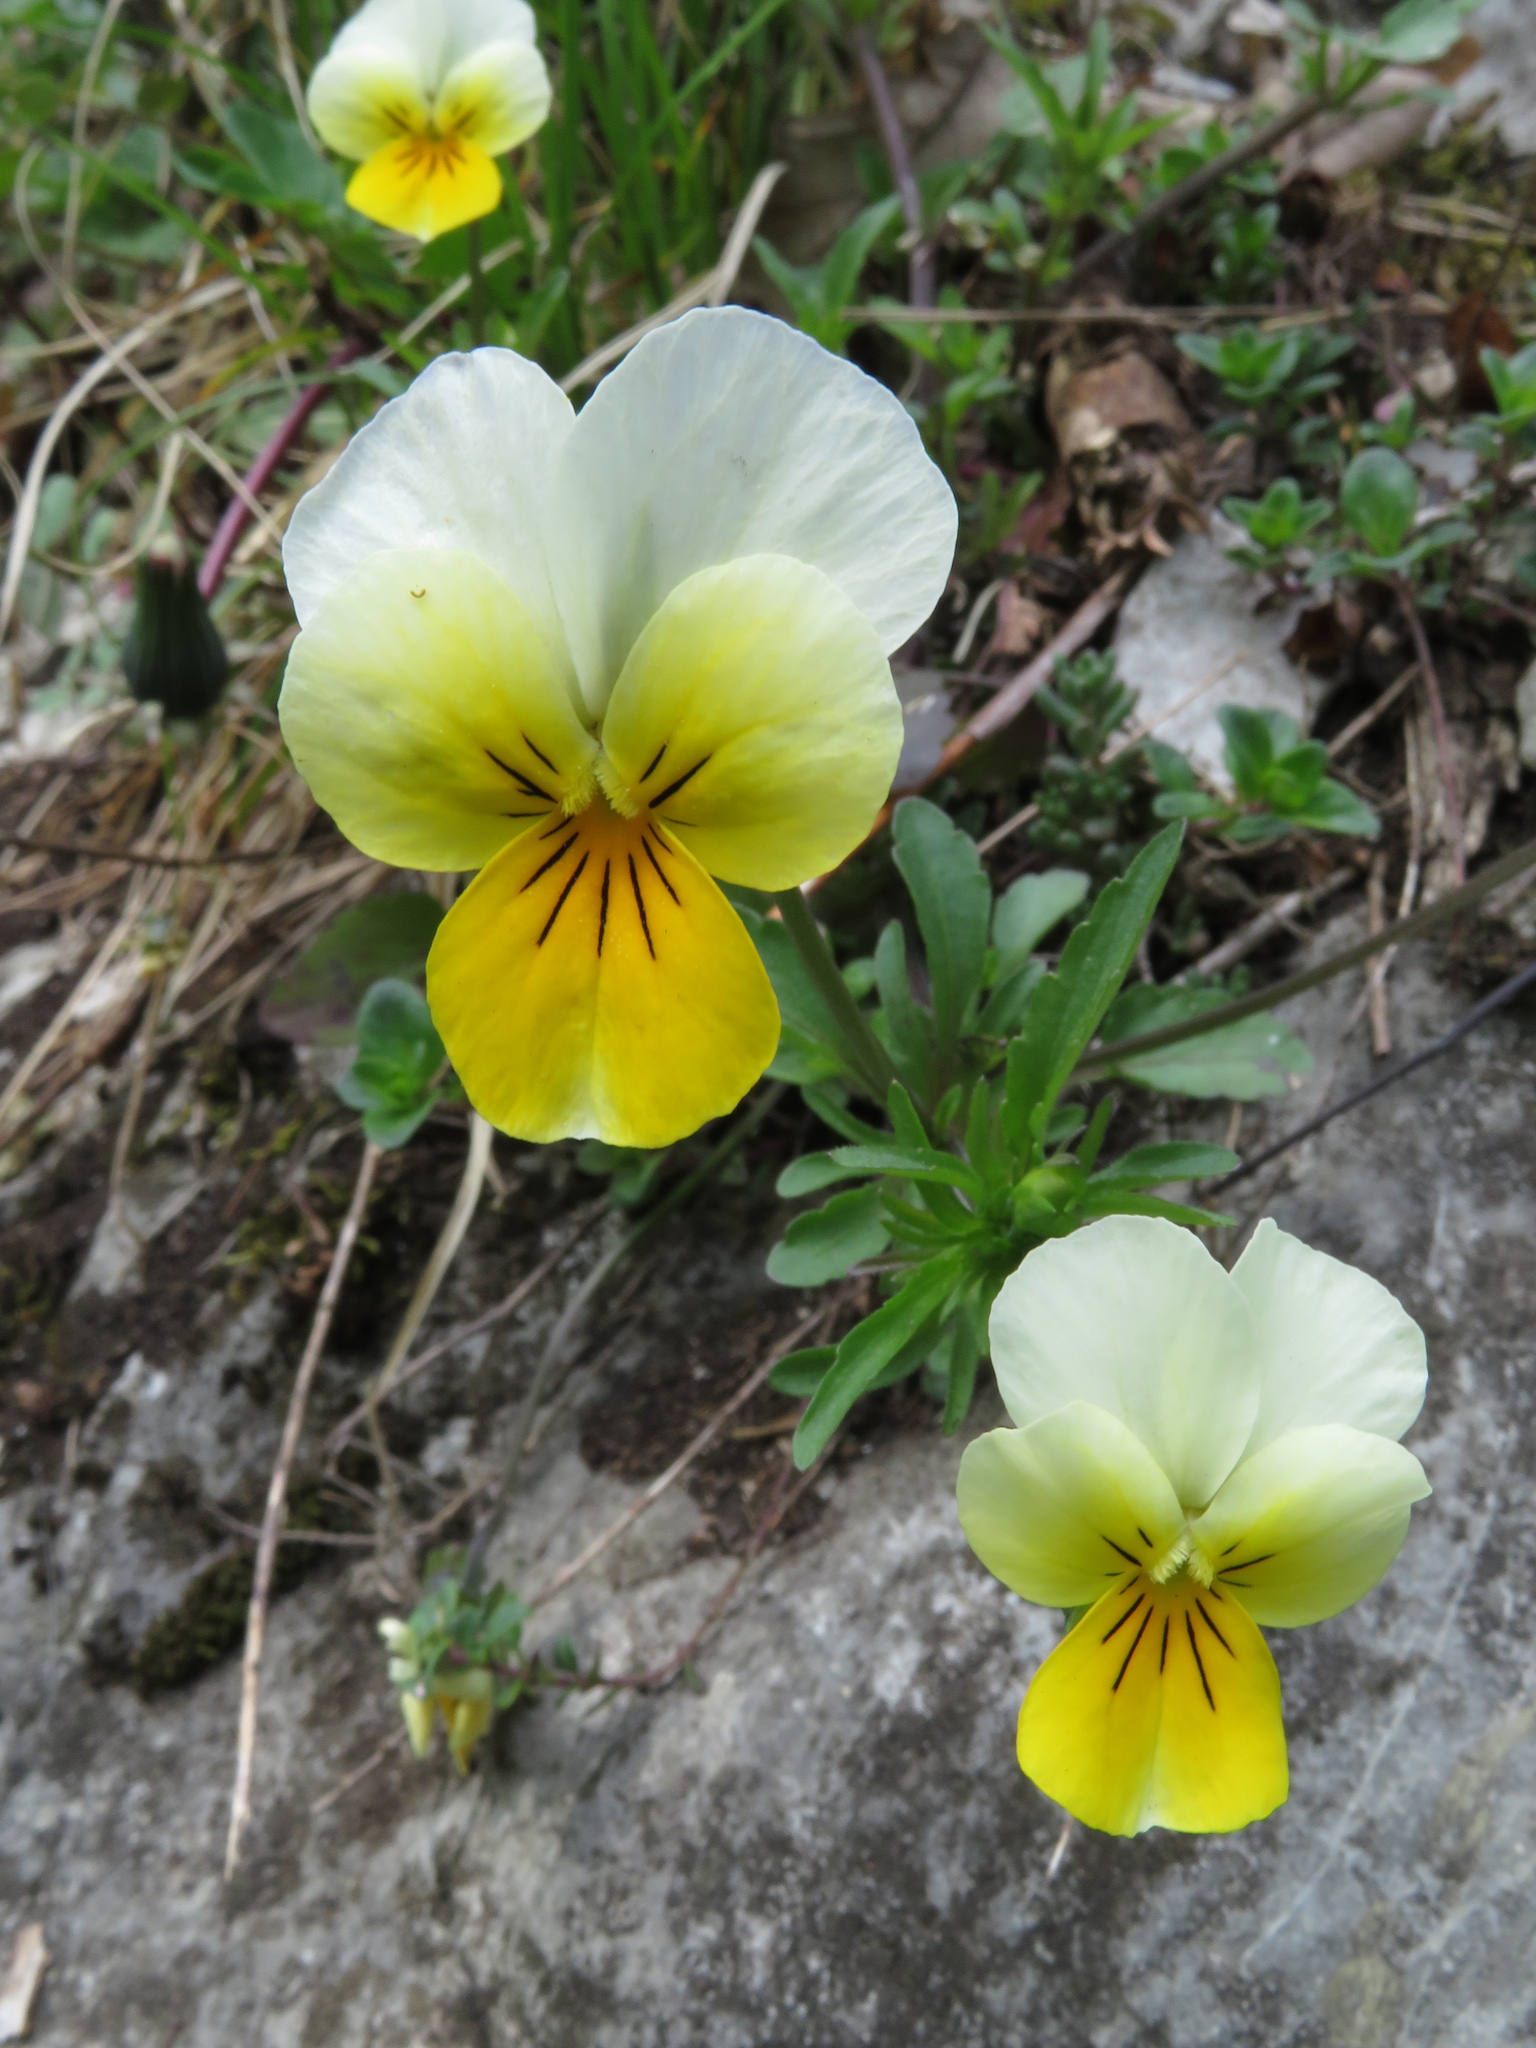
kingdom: Plantae
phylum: Tracheophyta
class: Magnoliopsida
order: Malpighiales
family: Violaceae
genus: Viola
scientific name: Viola tricolor
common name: Pansy
